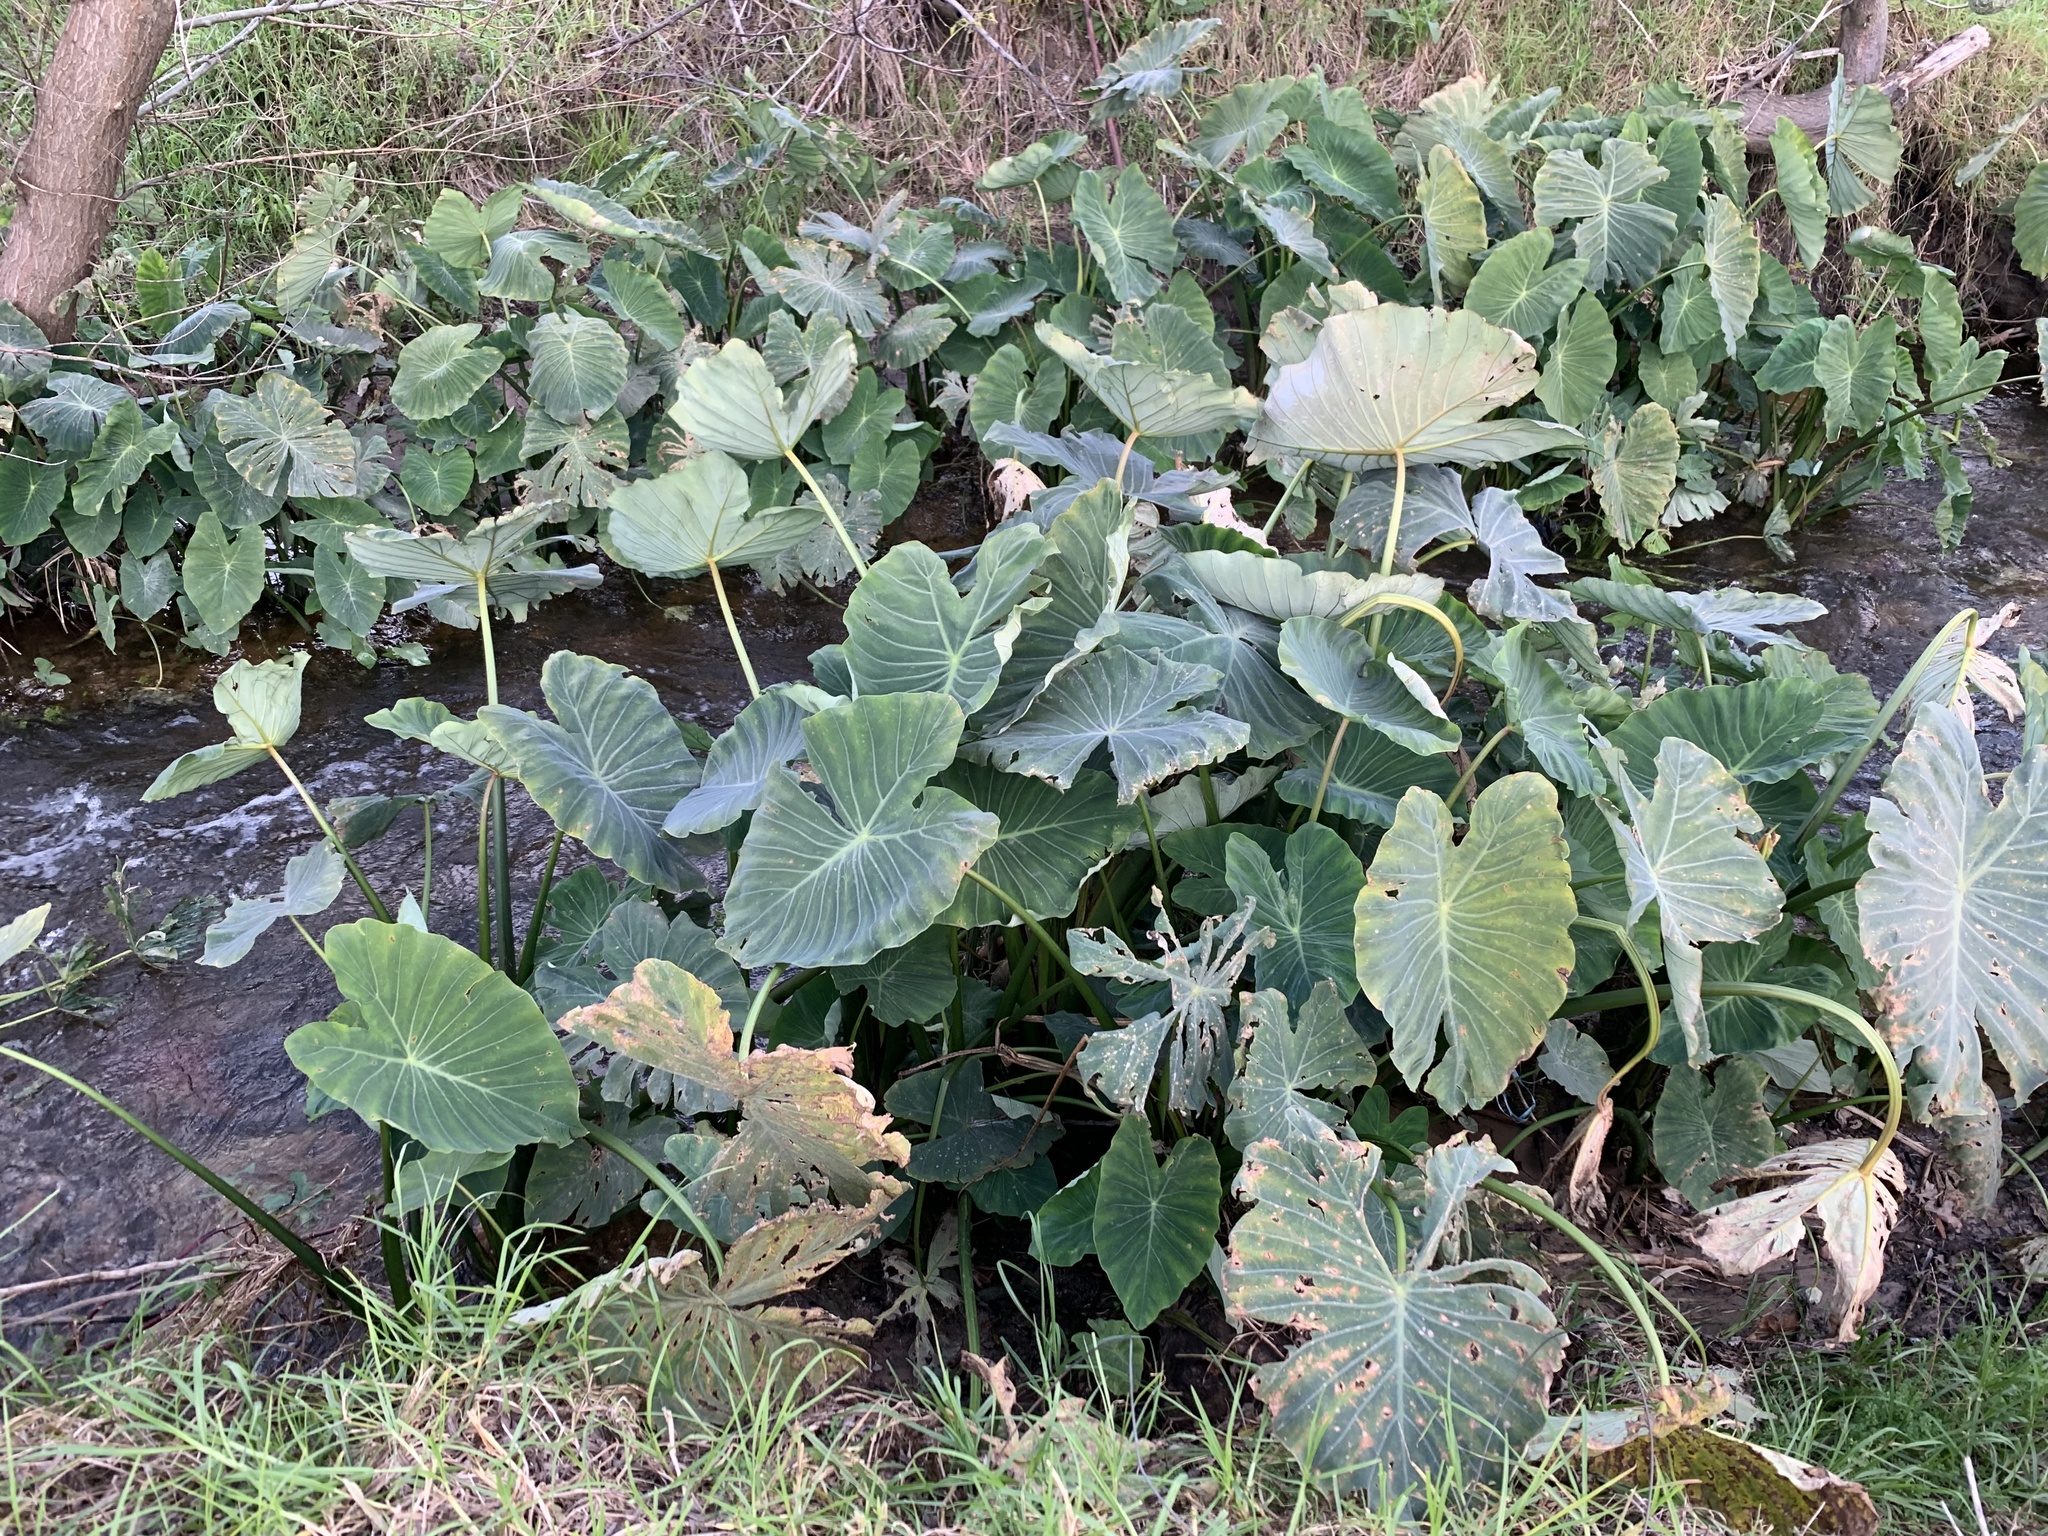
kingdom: Plantae
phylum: Tracheophyta
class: Liliopsida
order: Alismatales
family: Araceae
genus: Colocasia
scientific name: Colocasia esculenta
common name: Taro
